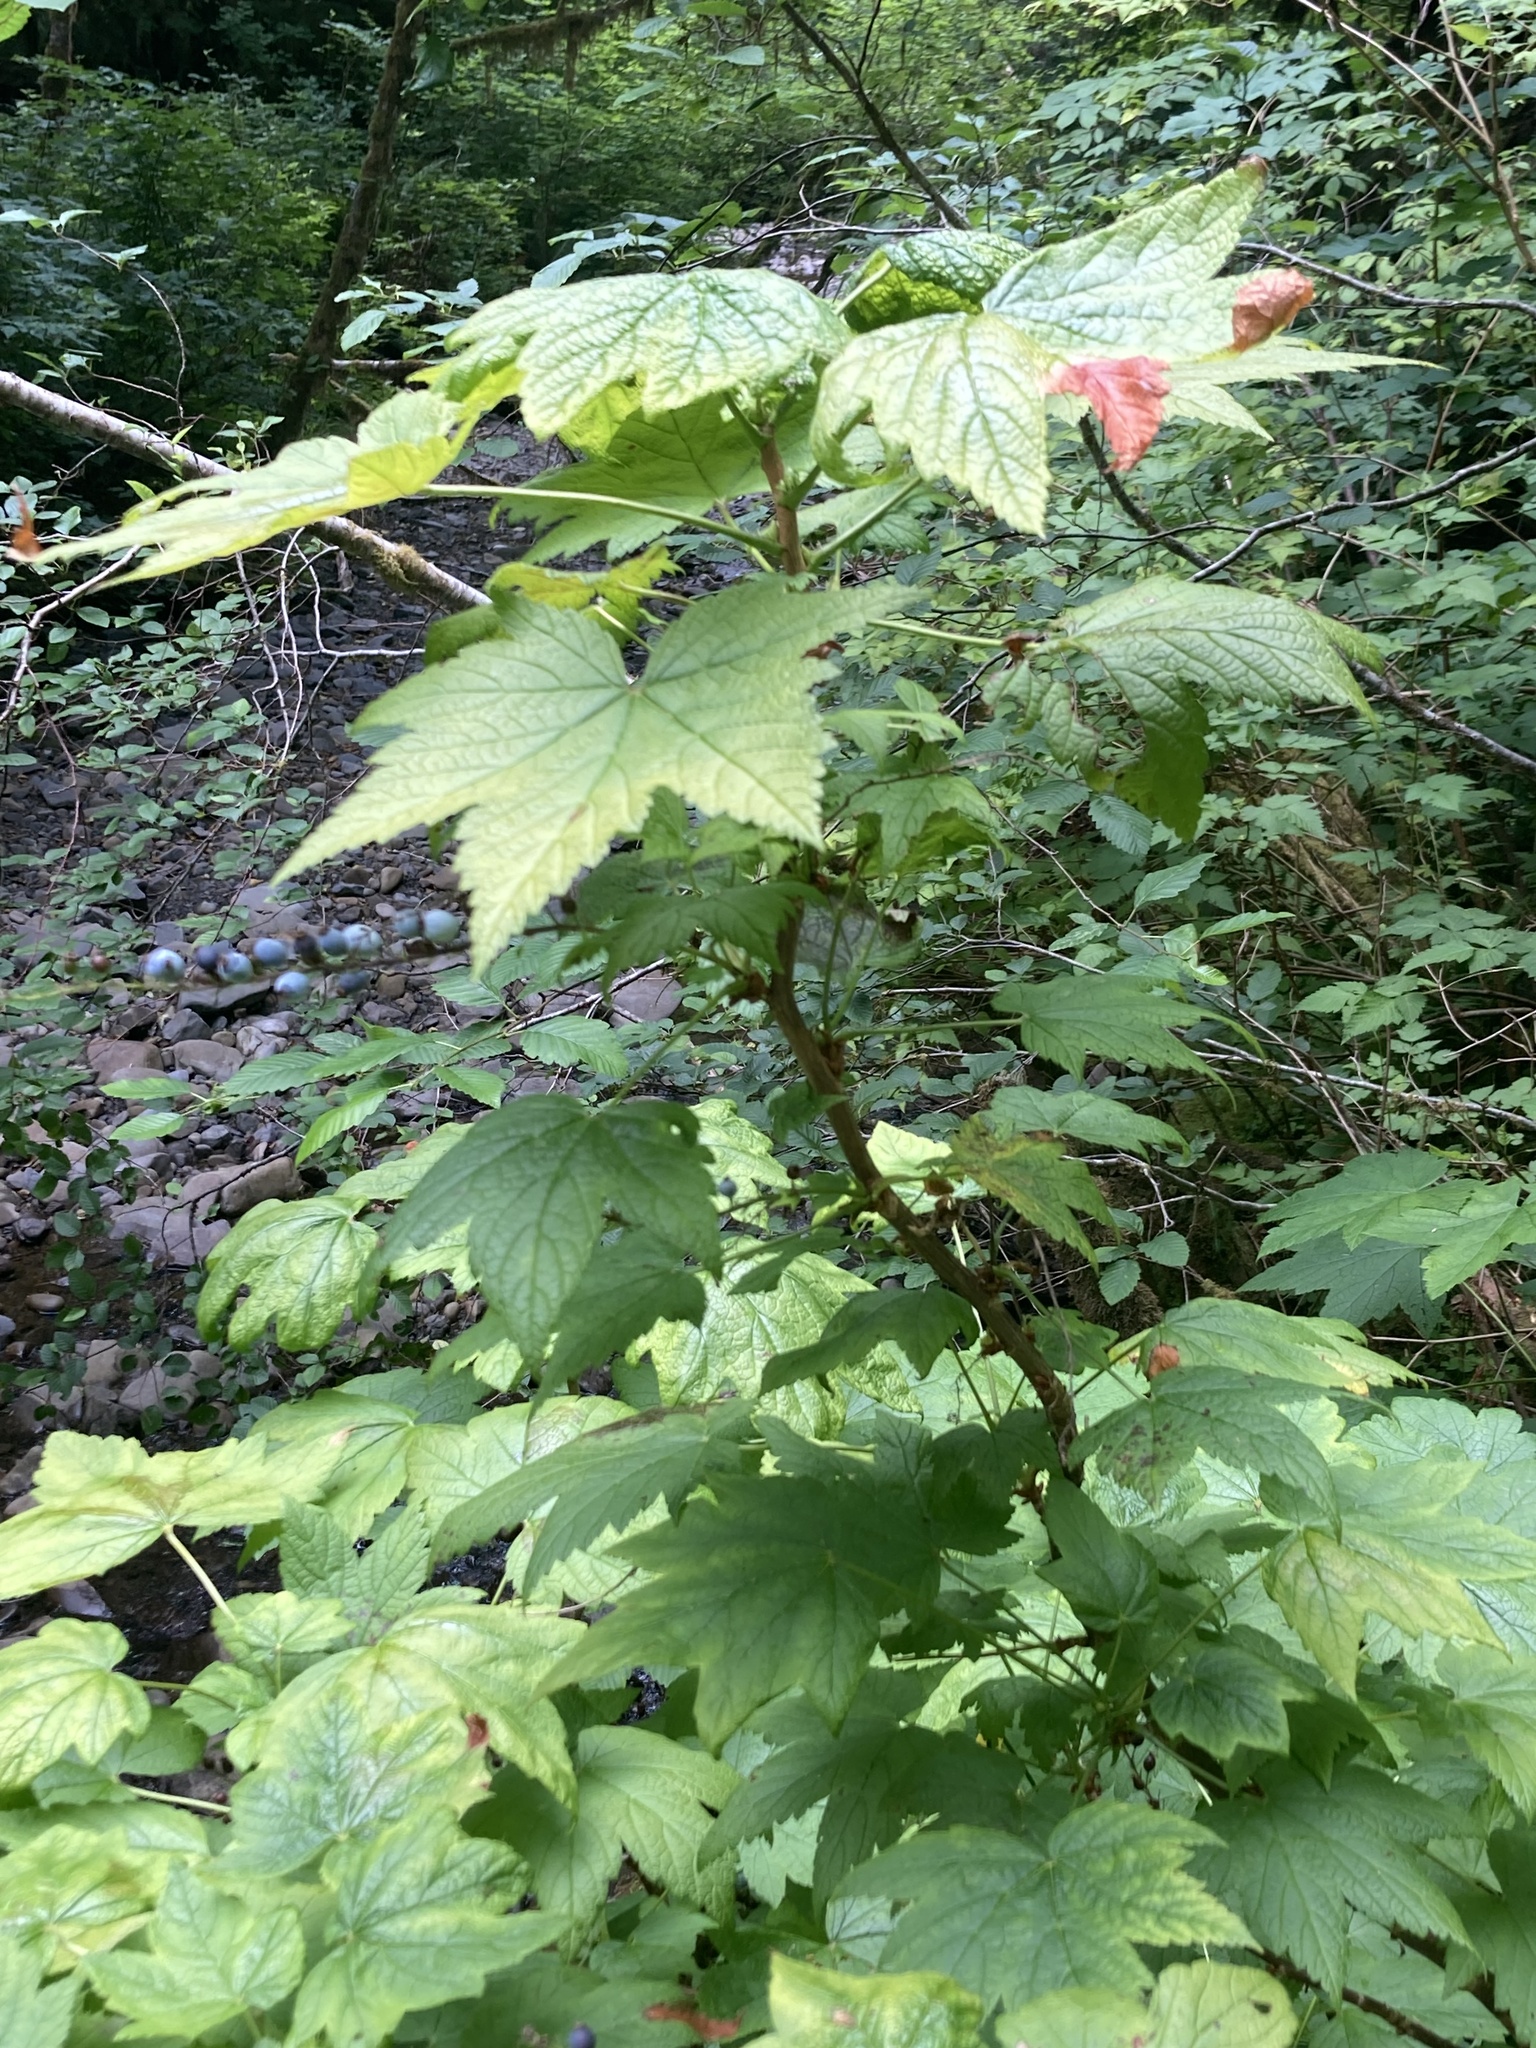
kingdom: Plantae
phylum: Tracheophyta
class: Magnoliopsida
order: Saxifragales
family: Grossulariaceae
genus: Ribes
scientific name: Ribes bracteosum
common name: California black currant
